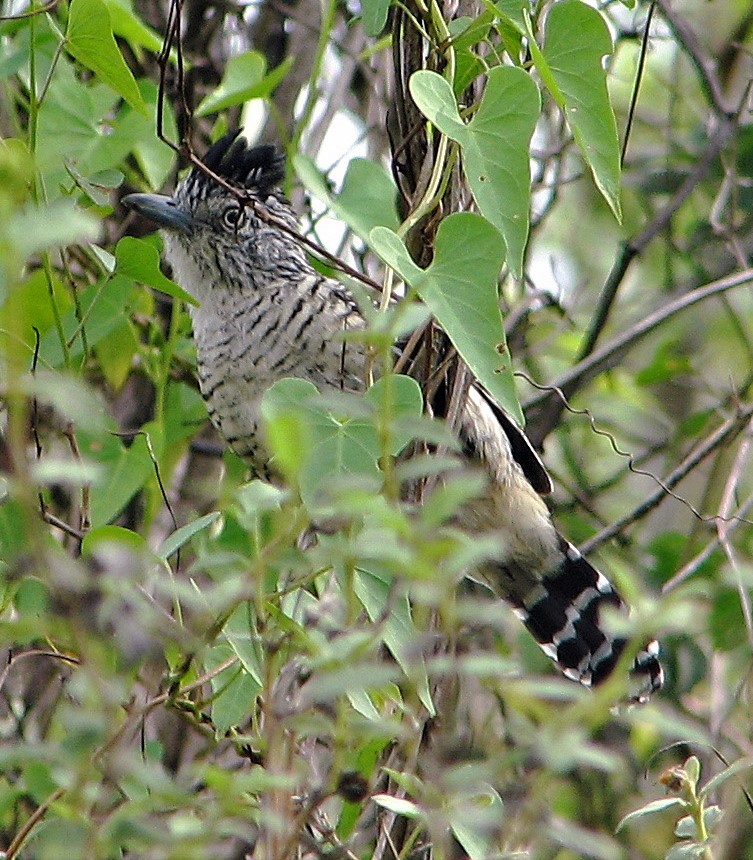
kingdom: Animalia
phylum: Chordata
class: Aves
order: Passeriformes
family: Thamnophilidae
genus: Thamnophilus
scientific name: Thamnophilus doliatus
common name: Barred antshrike
